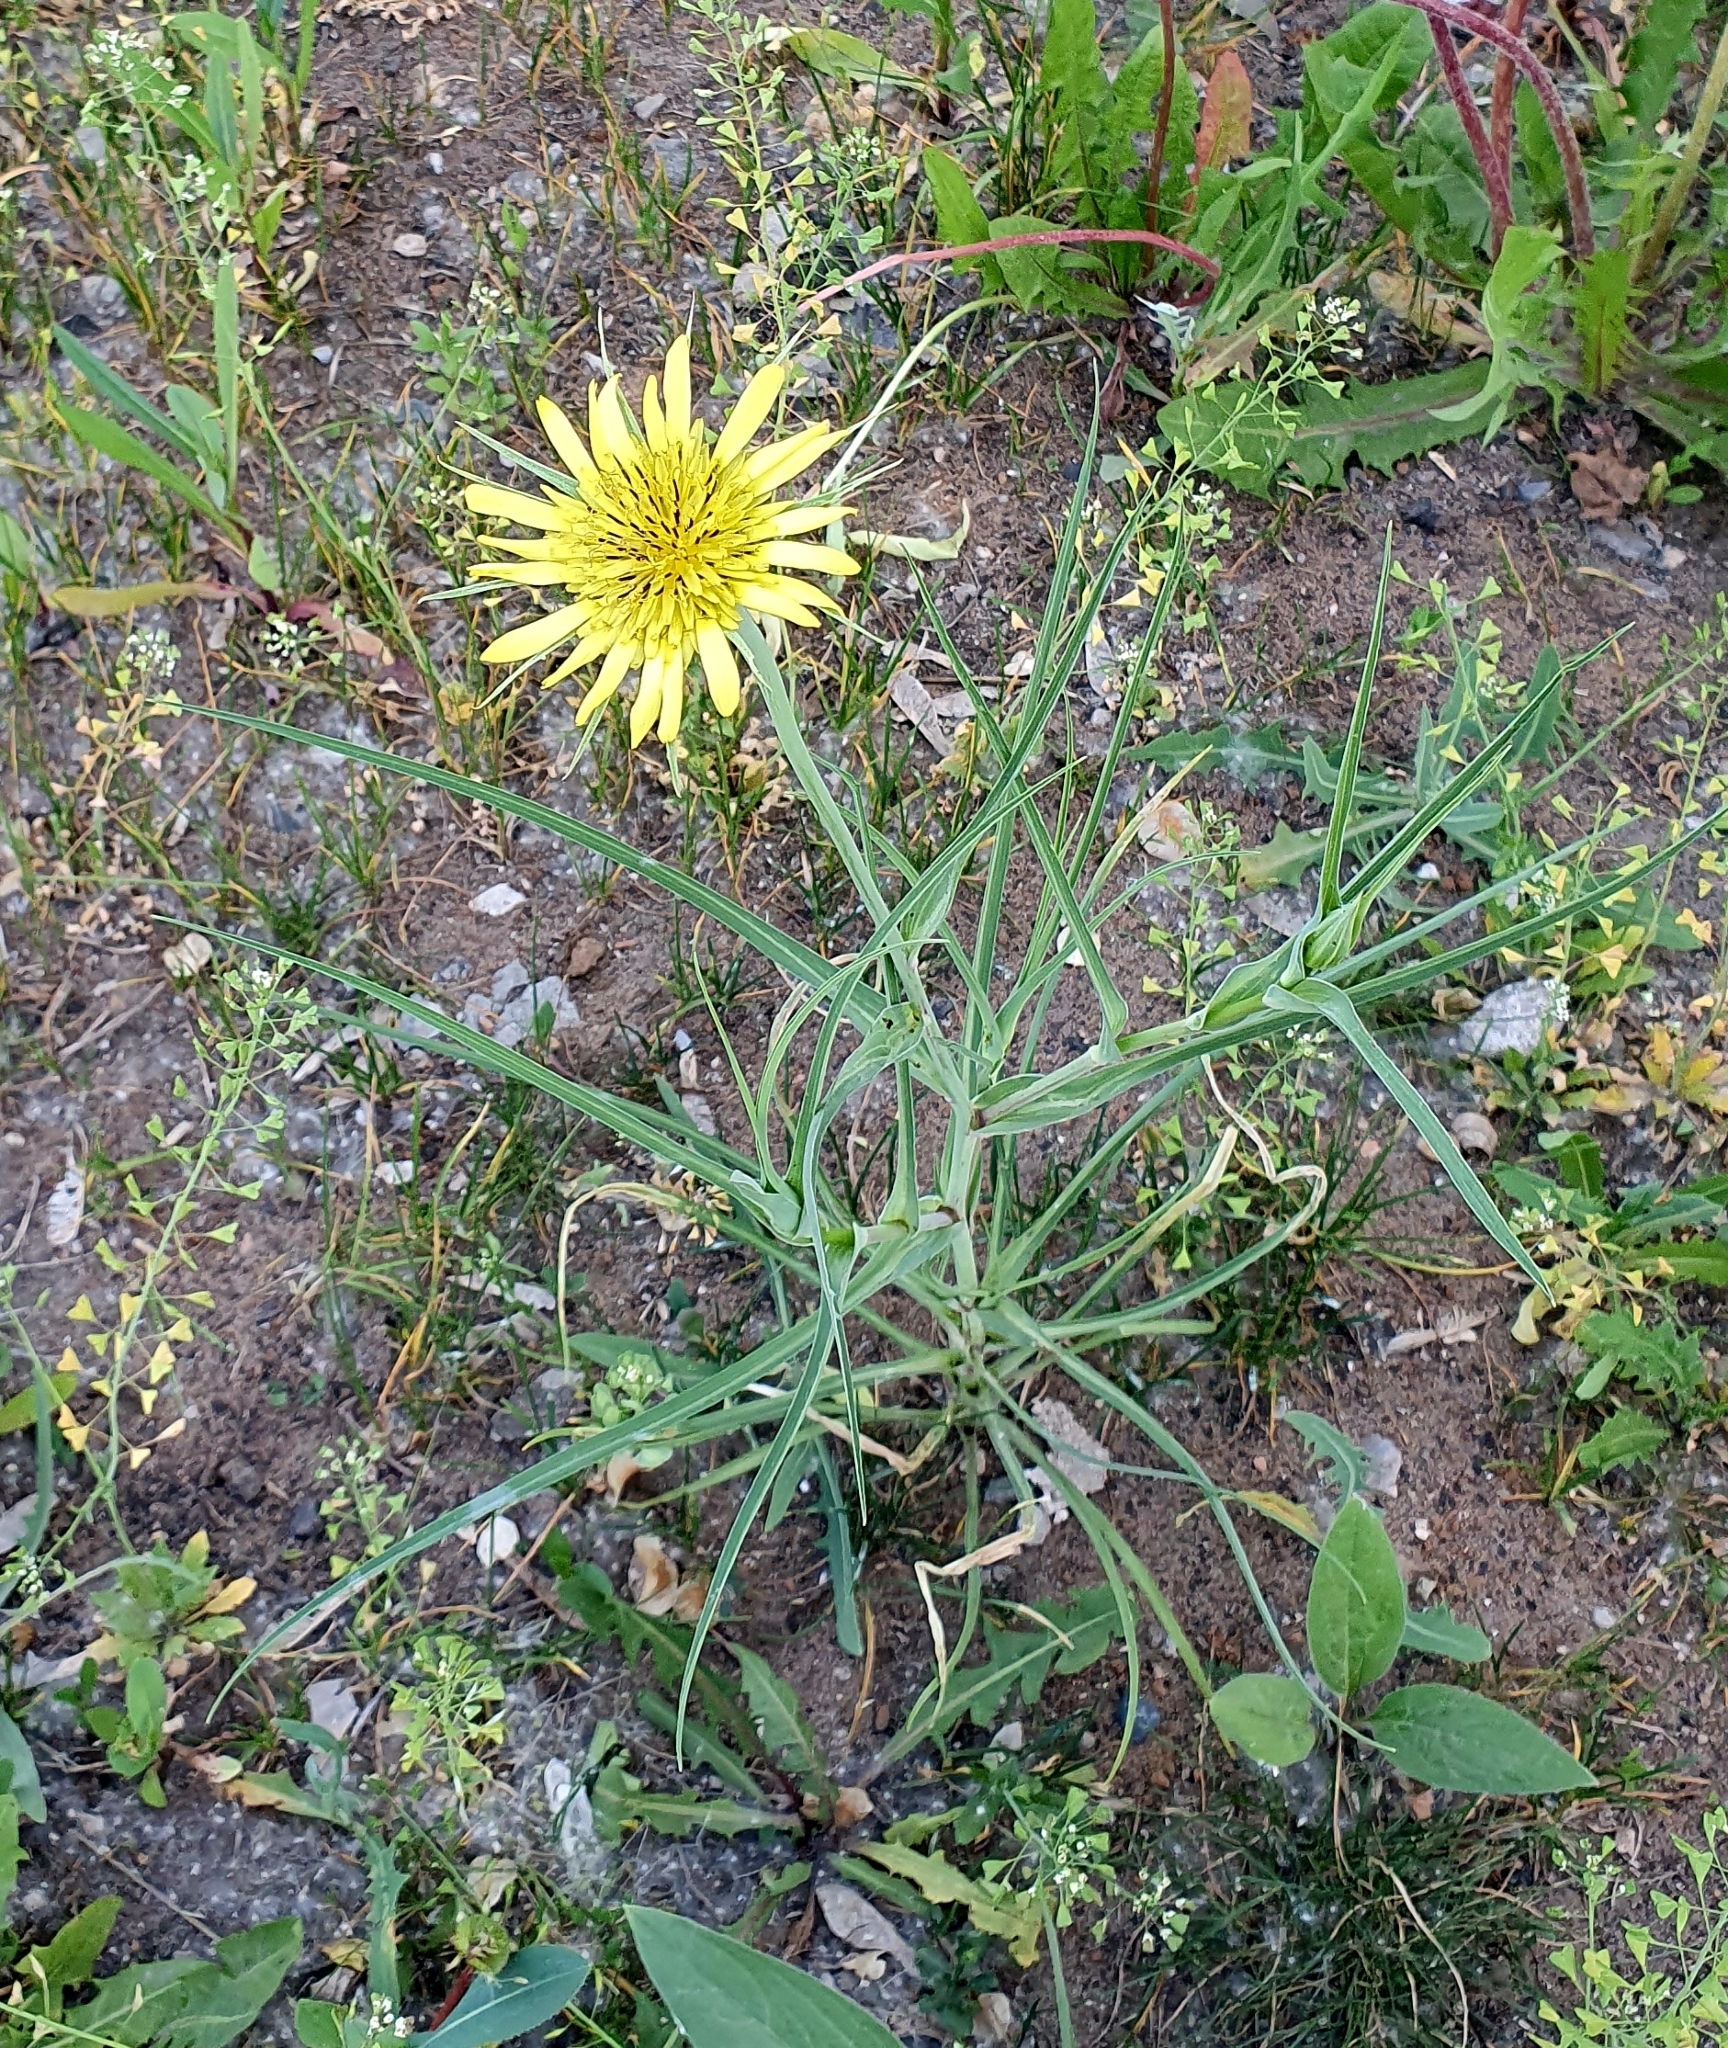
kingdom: Plantae
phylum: Tracheophyta
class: Magnoliopsida
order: Asterales
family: Asteraceae
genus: Tragopogon
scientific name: Tragopogon dubius
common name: Yellow salsify
